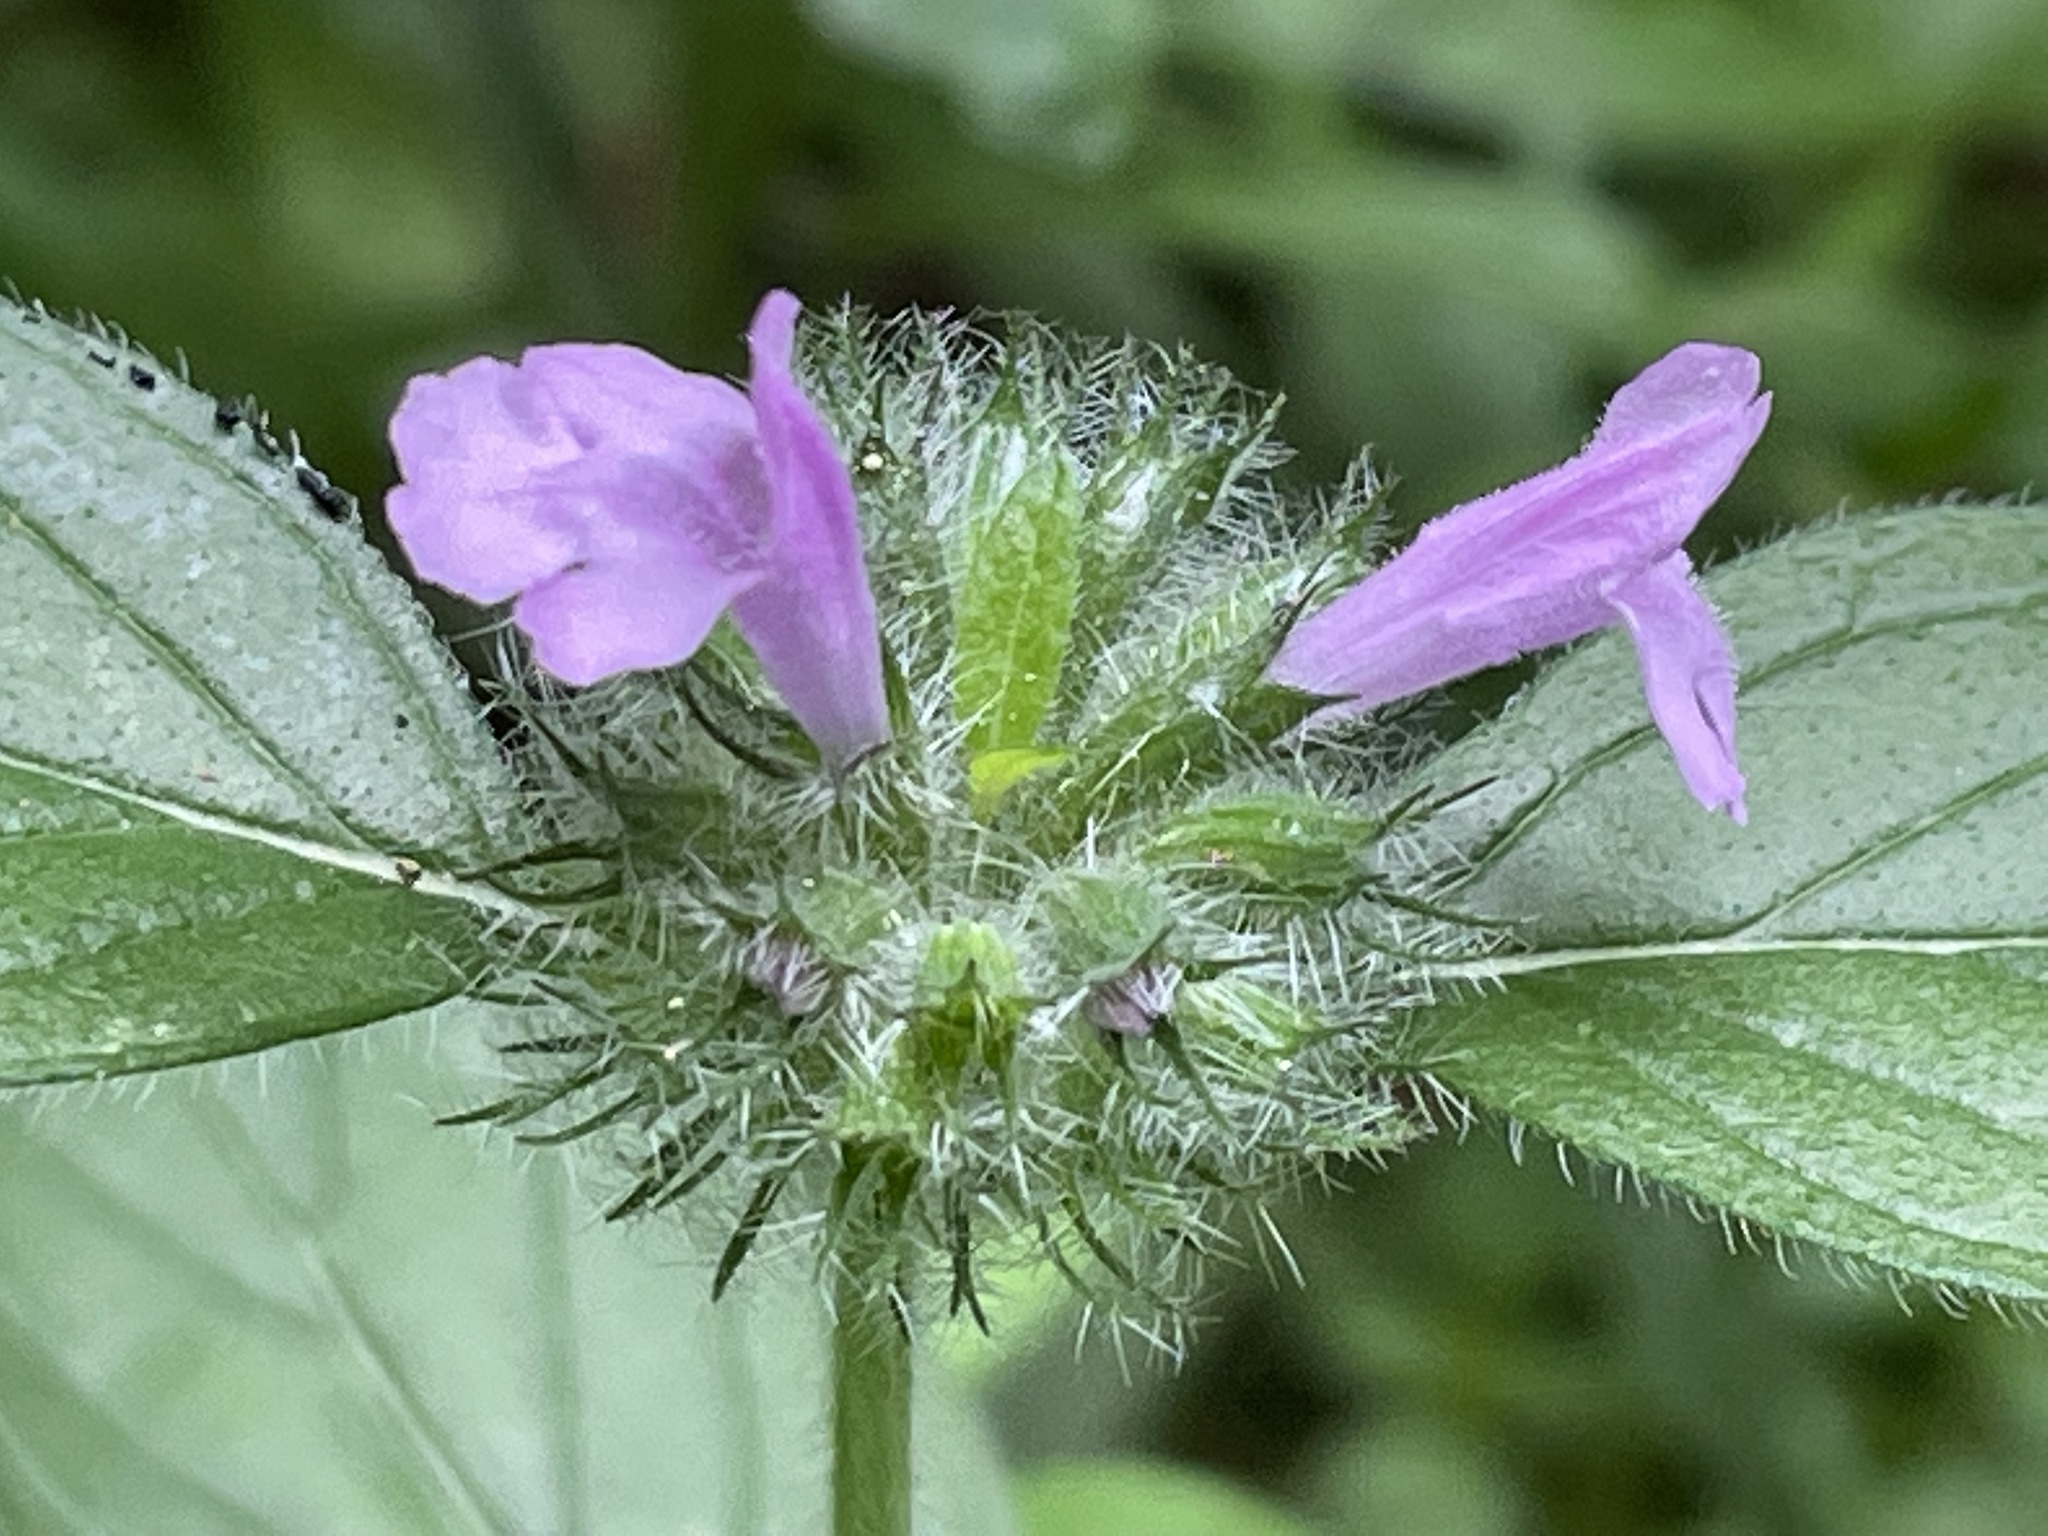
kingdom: Plantae
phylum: Tracheophyta
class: Magnoliopsida
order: Lamiales
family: Lamiaceae
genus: Clinopodium
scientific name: Clinopodium vulgare
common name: Wild basil
